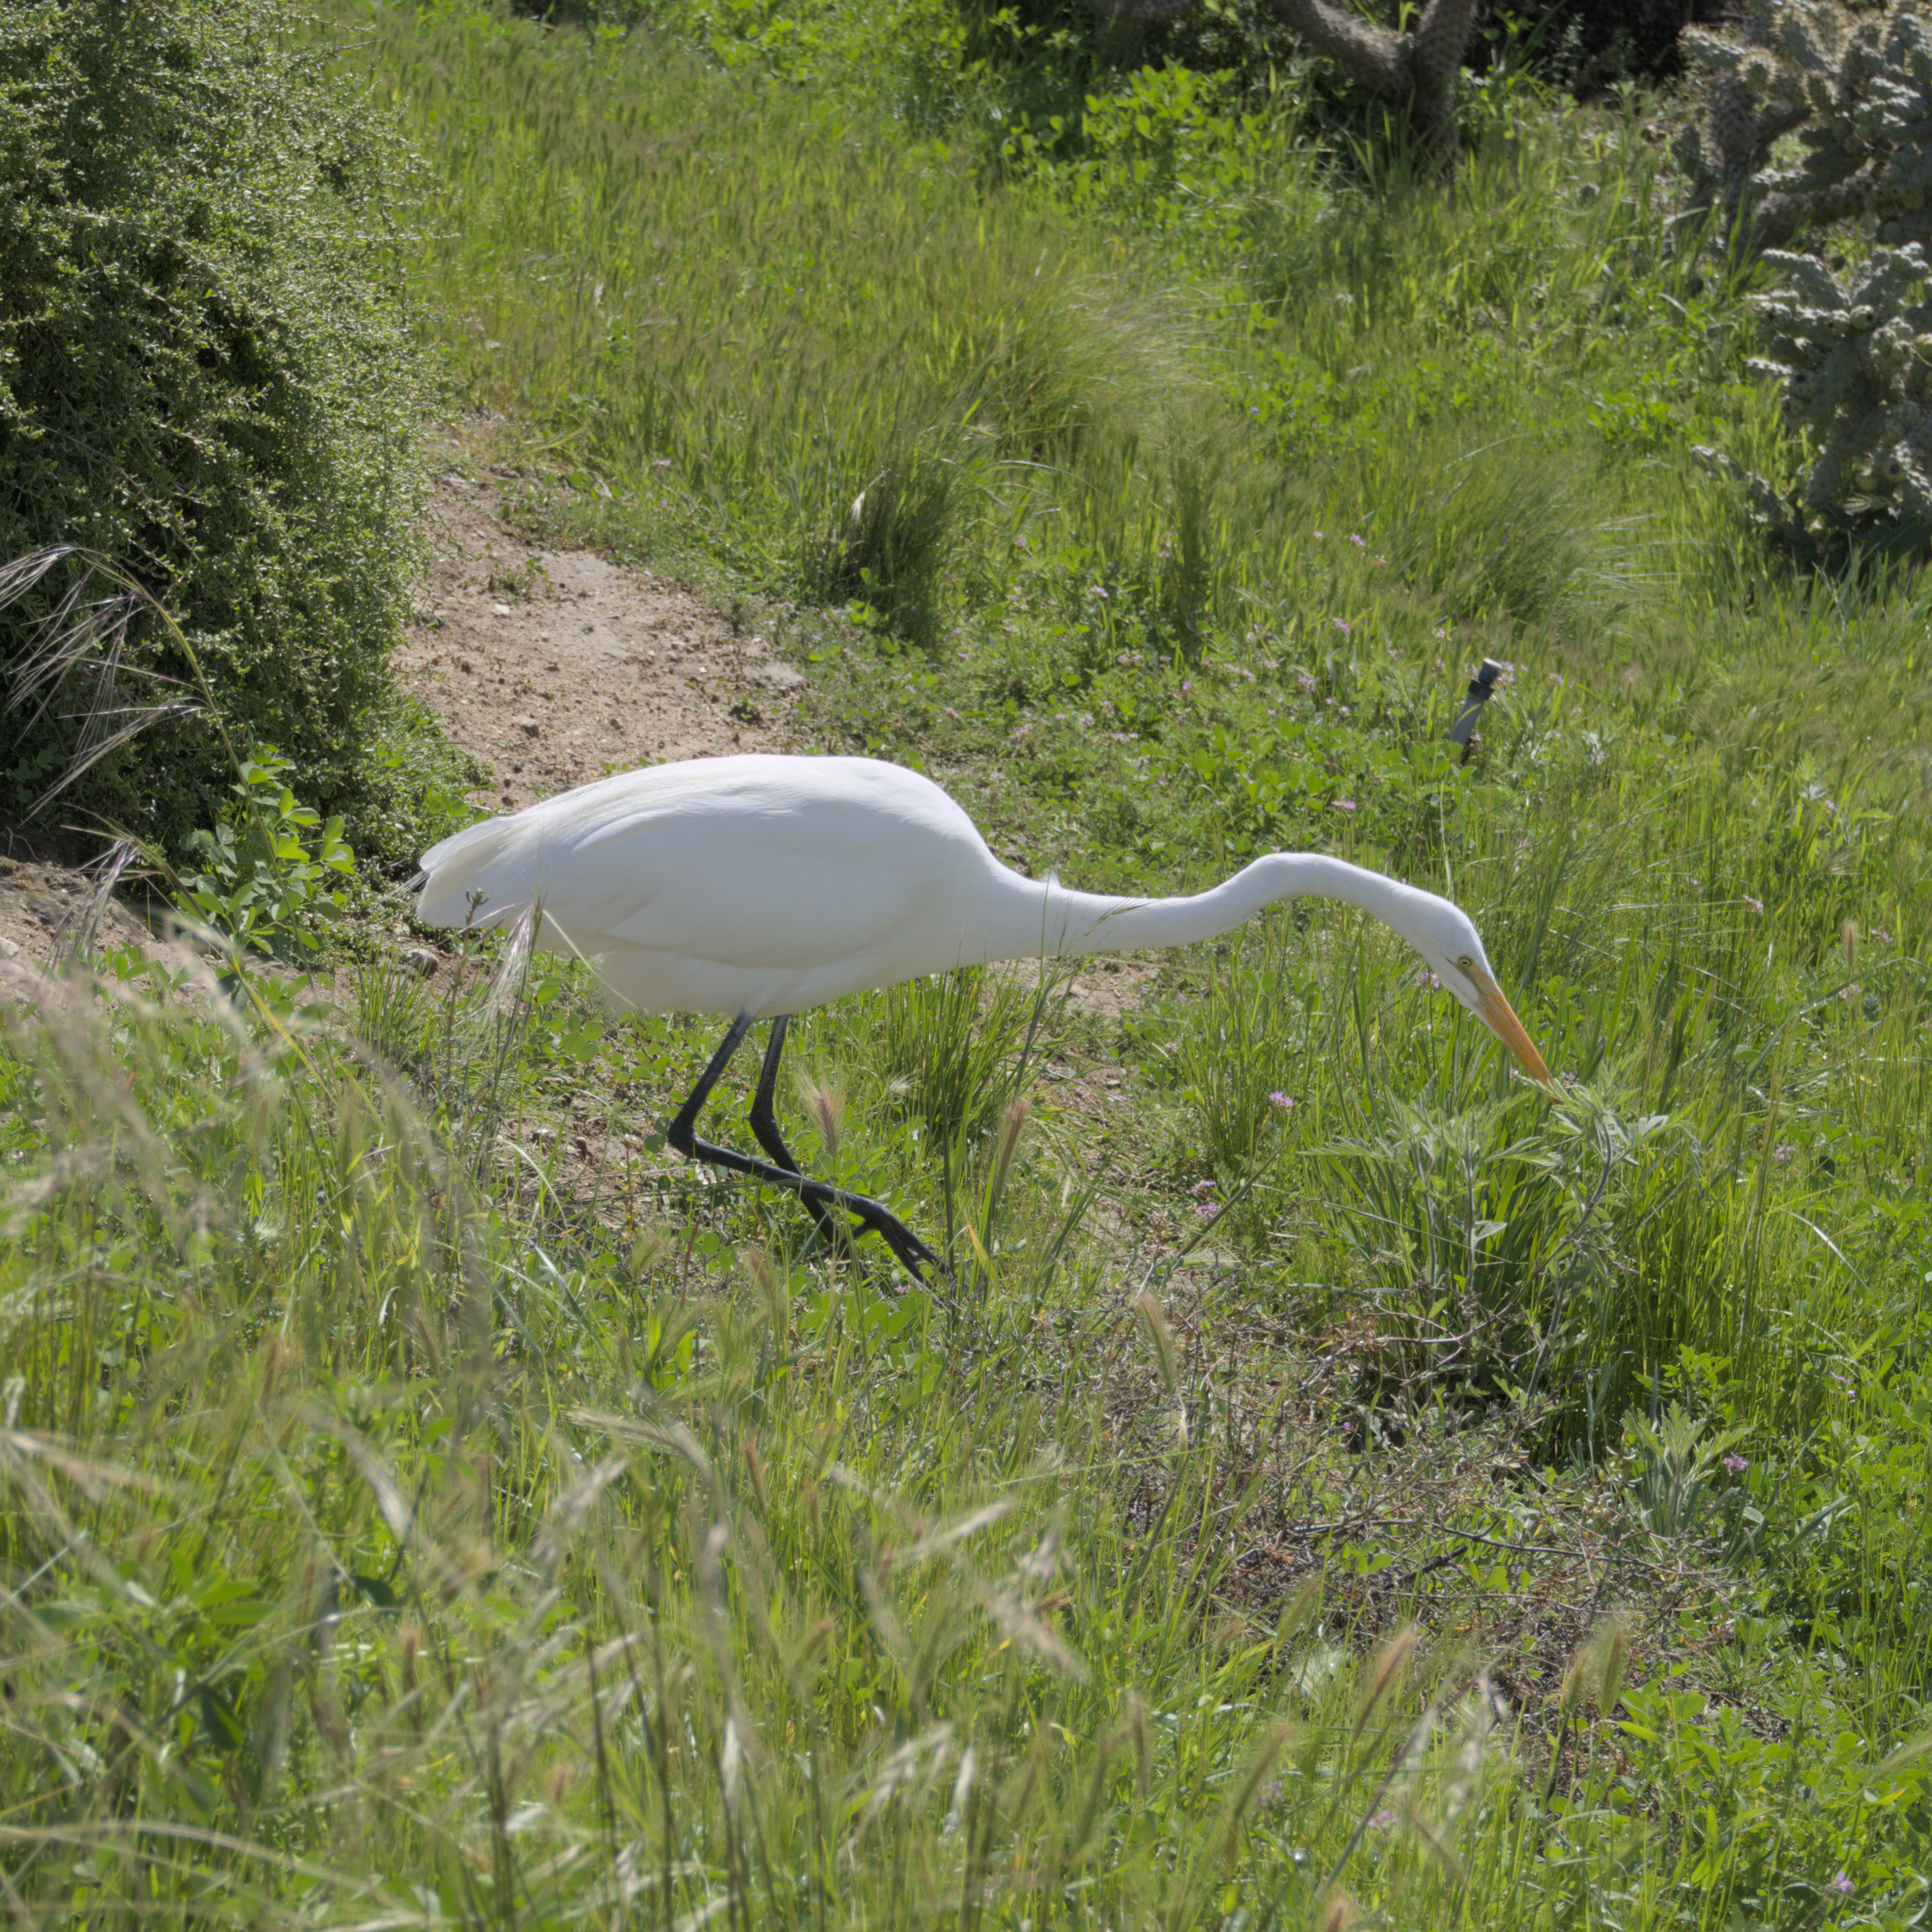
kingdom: Animalia
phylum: Chordata
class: Aves
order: Pelecaniformes
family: Ardeidae
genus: Ardea
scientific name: Ardea alba
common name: Great egret
